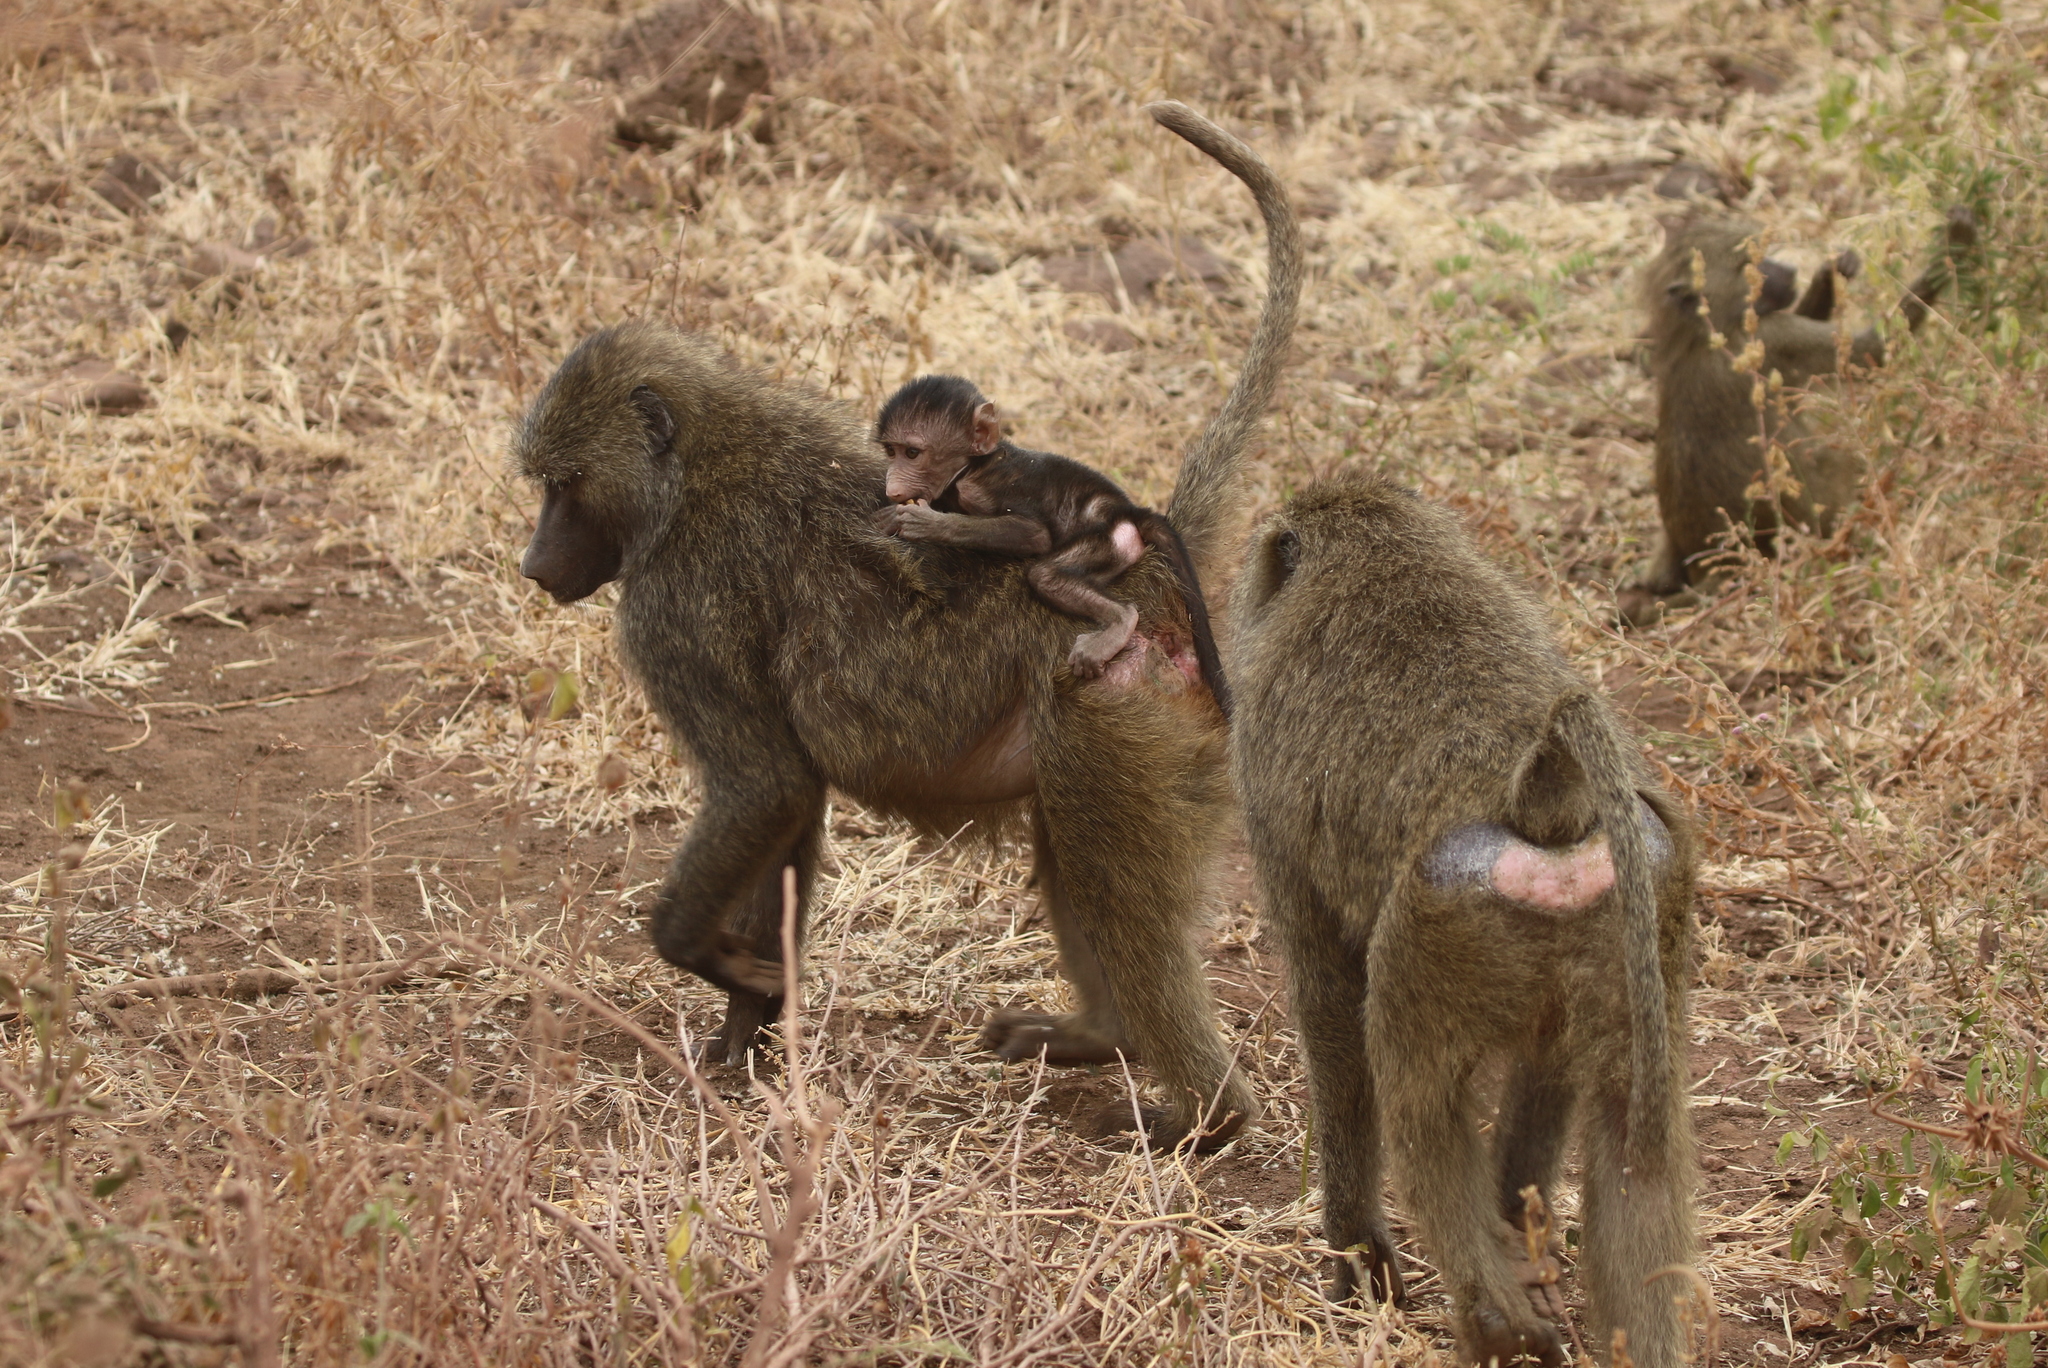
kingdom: Animalia
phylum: Chordata
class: Mammalia
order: Primates
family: Cercopithecidae
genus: Papio
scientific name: Papio anubis
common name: Olive baboon
